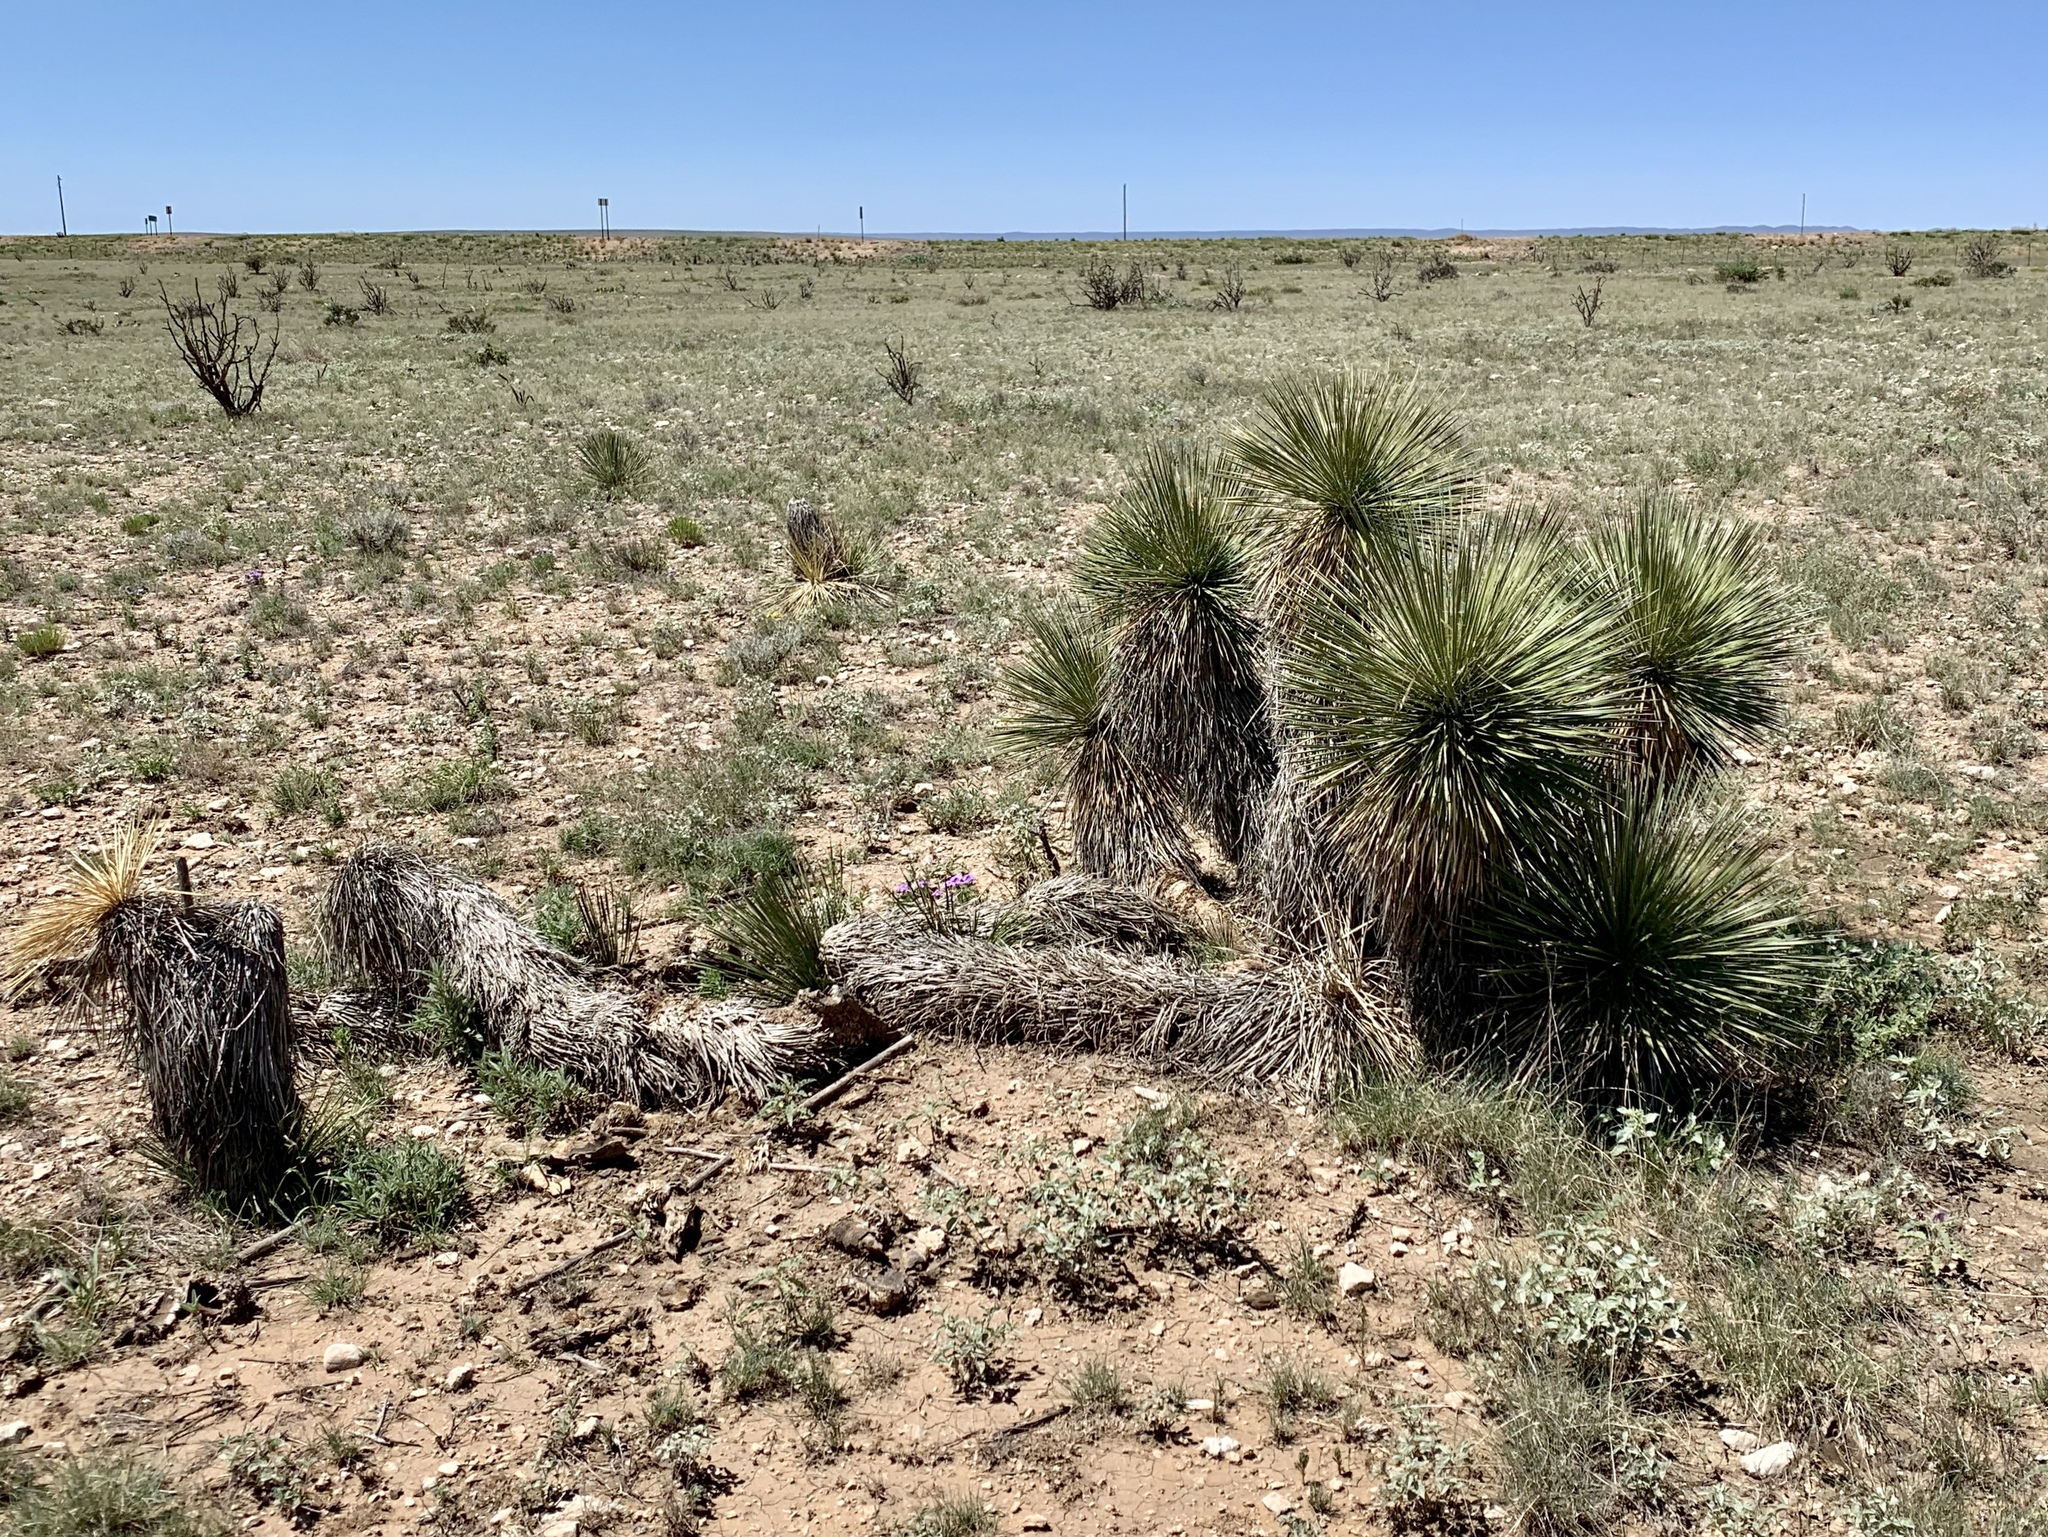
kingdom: Plantae
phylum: Tracheophyta
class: Liliopsida
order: Asparagales
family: Asparagaceae
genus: Yucca
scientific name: Yucca elata
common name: Palmella
